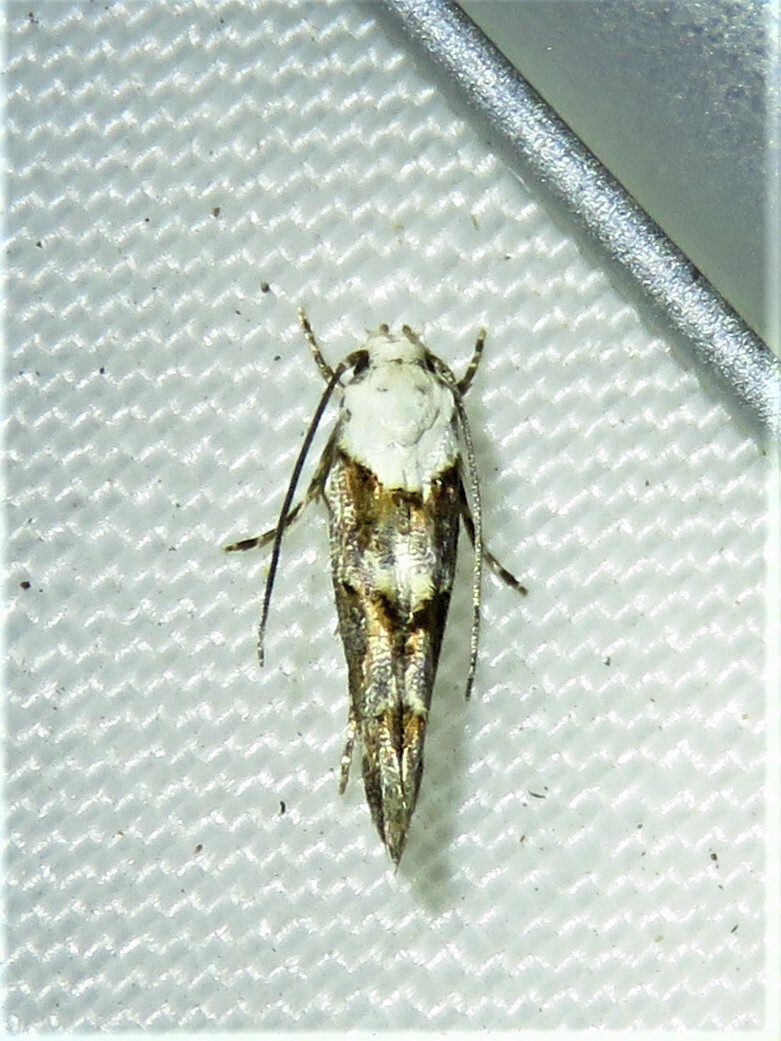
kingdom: Animalia
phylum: Arthropoda
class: Insecta
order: Lepidoptera
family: Momphidae
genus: Mompha
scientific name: Mompha albocapitella
